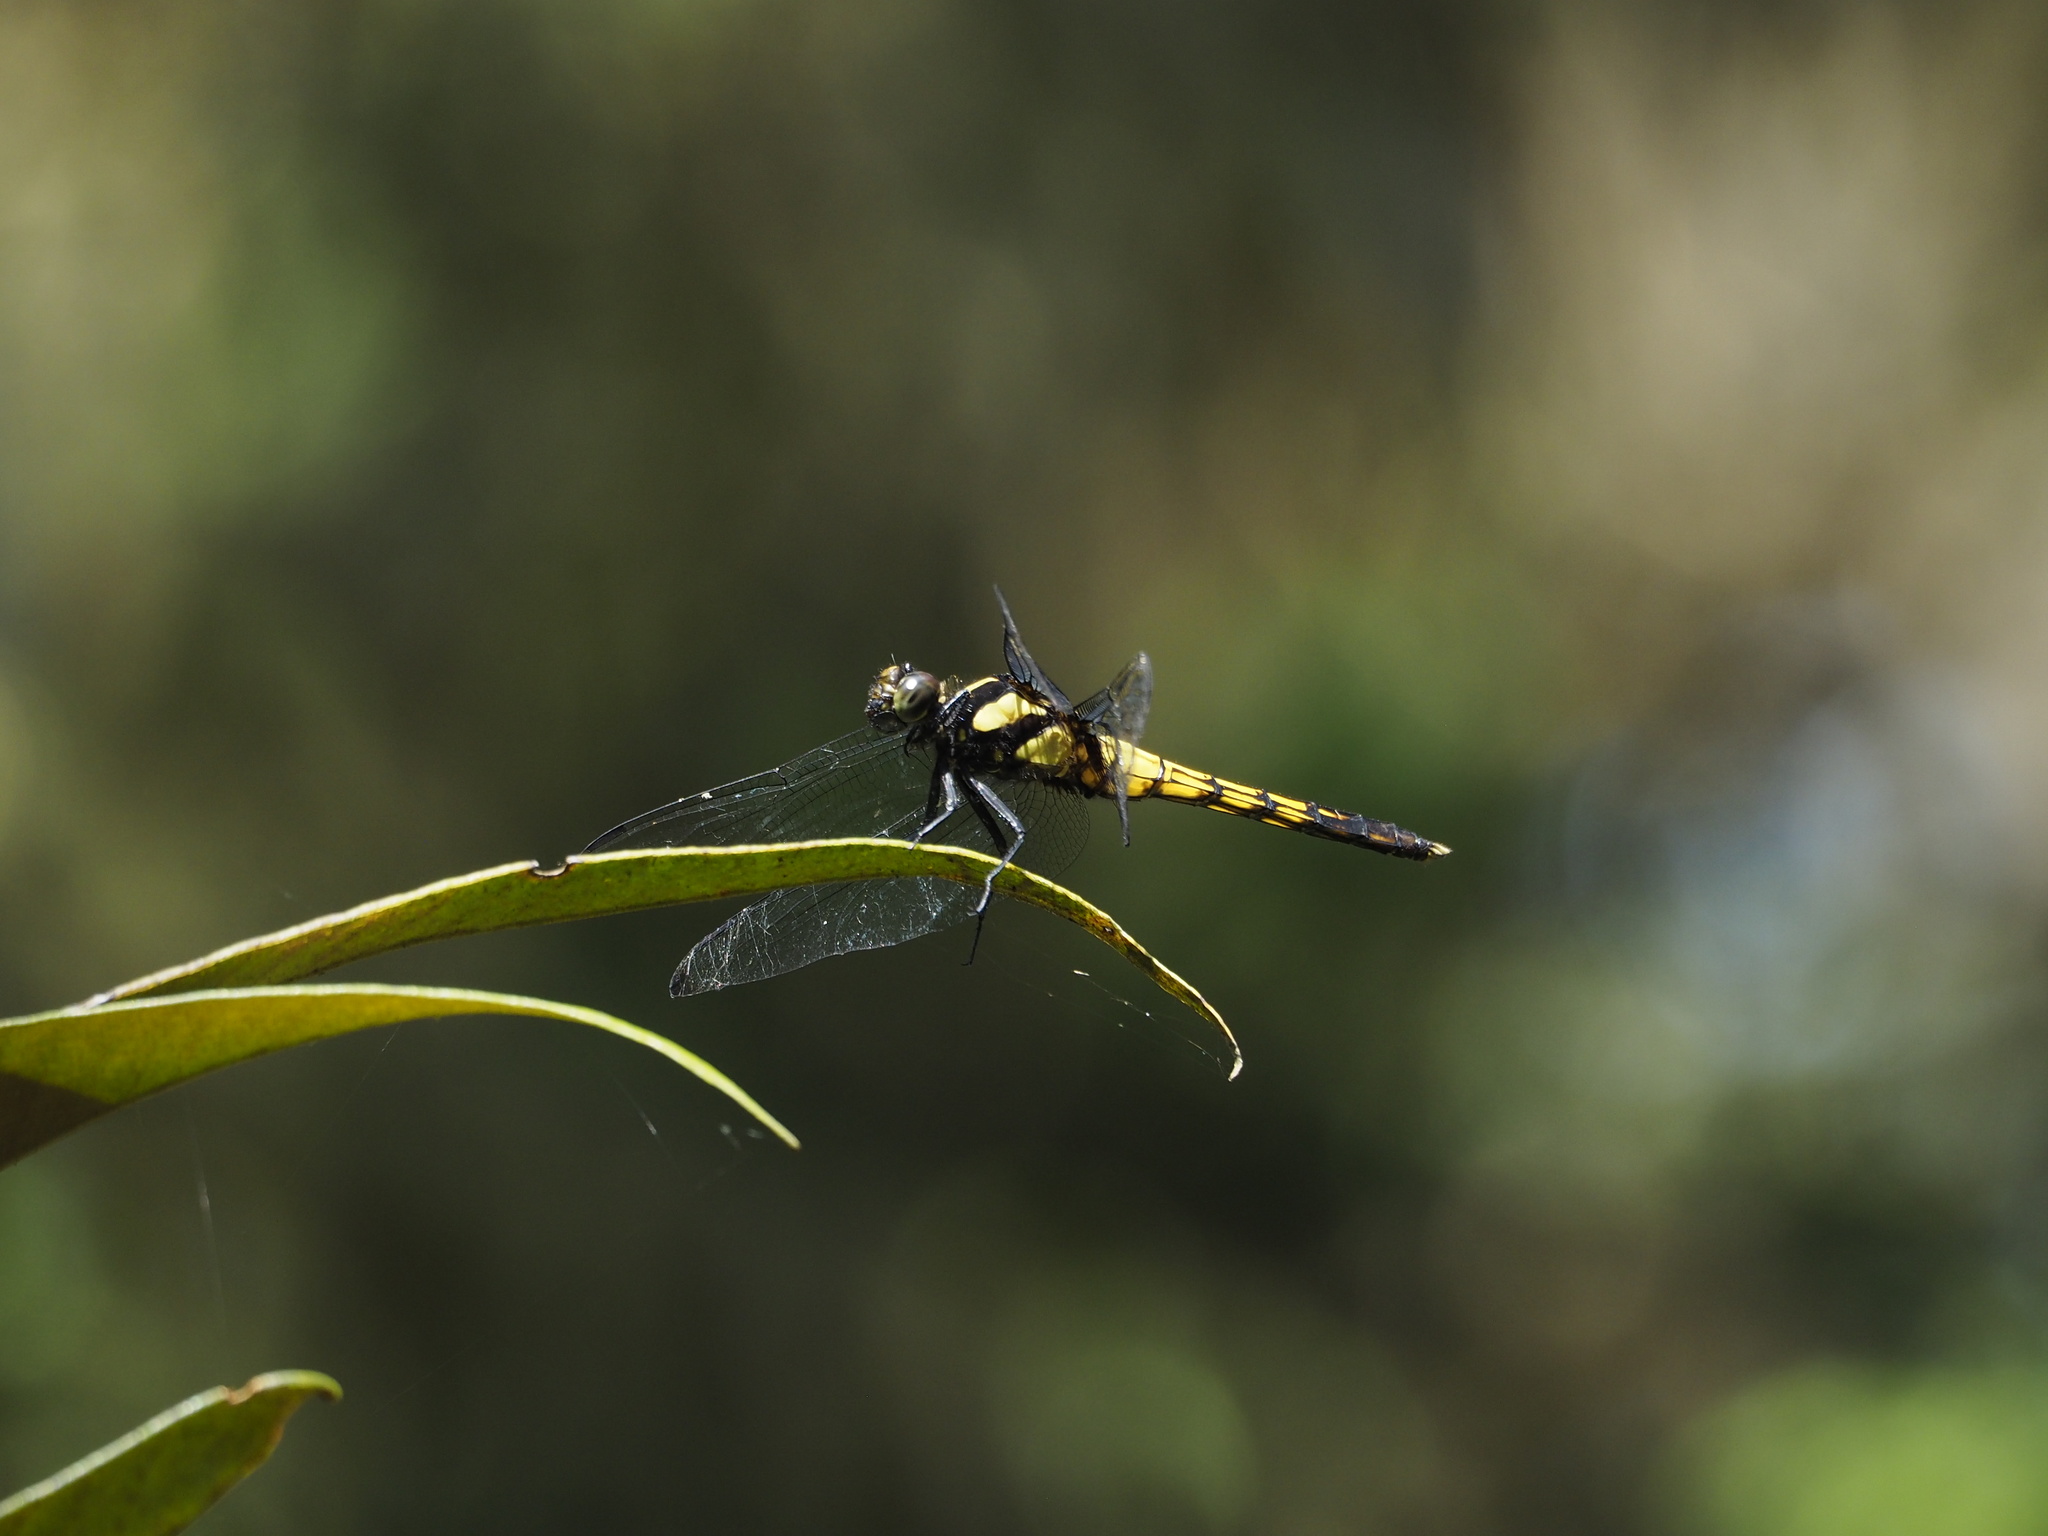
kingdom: Animalia
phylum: Arthropoda
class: Insecta
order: Odonata
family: Libellulidae
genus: Orthetrum
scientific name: Orthetrum melania
